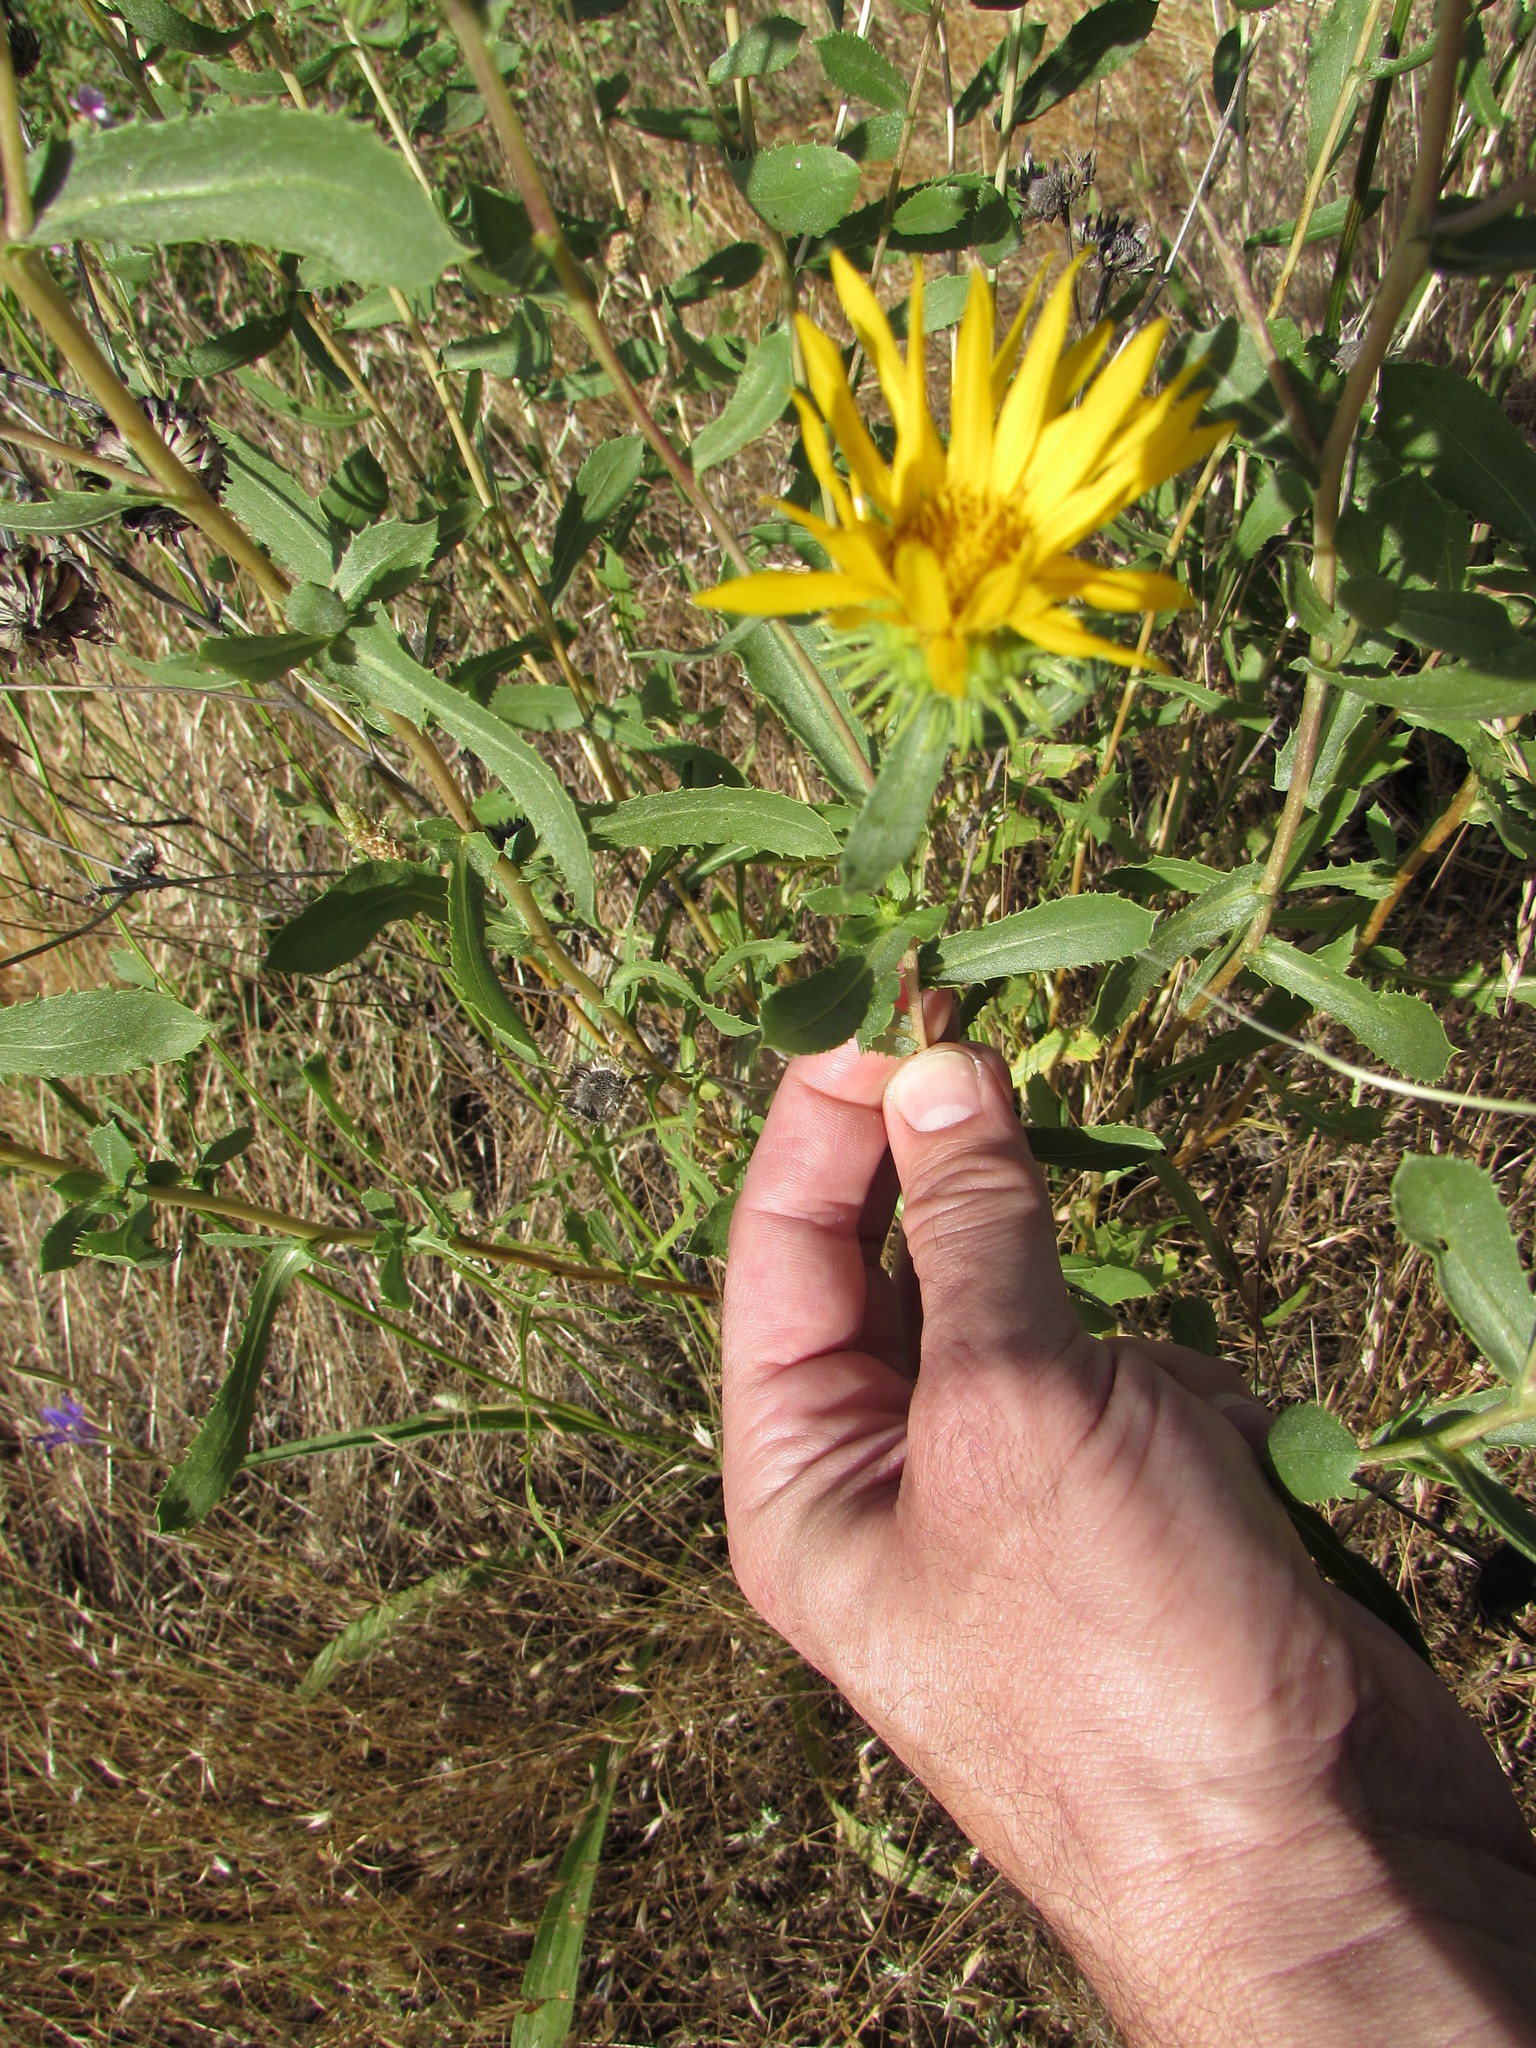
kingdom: Plantae
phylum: Tracheophyta
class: Magnoliopsida
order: Asterales
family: Asteraceae
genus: Grindelia
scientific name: Grindelia hirsutula
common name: Hairy gumweed
